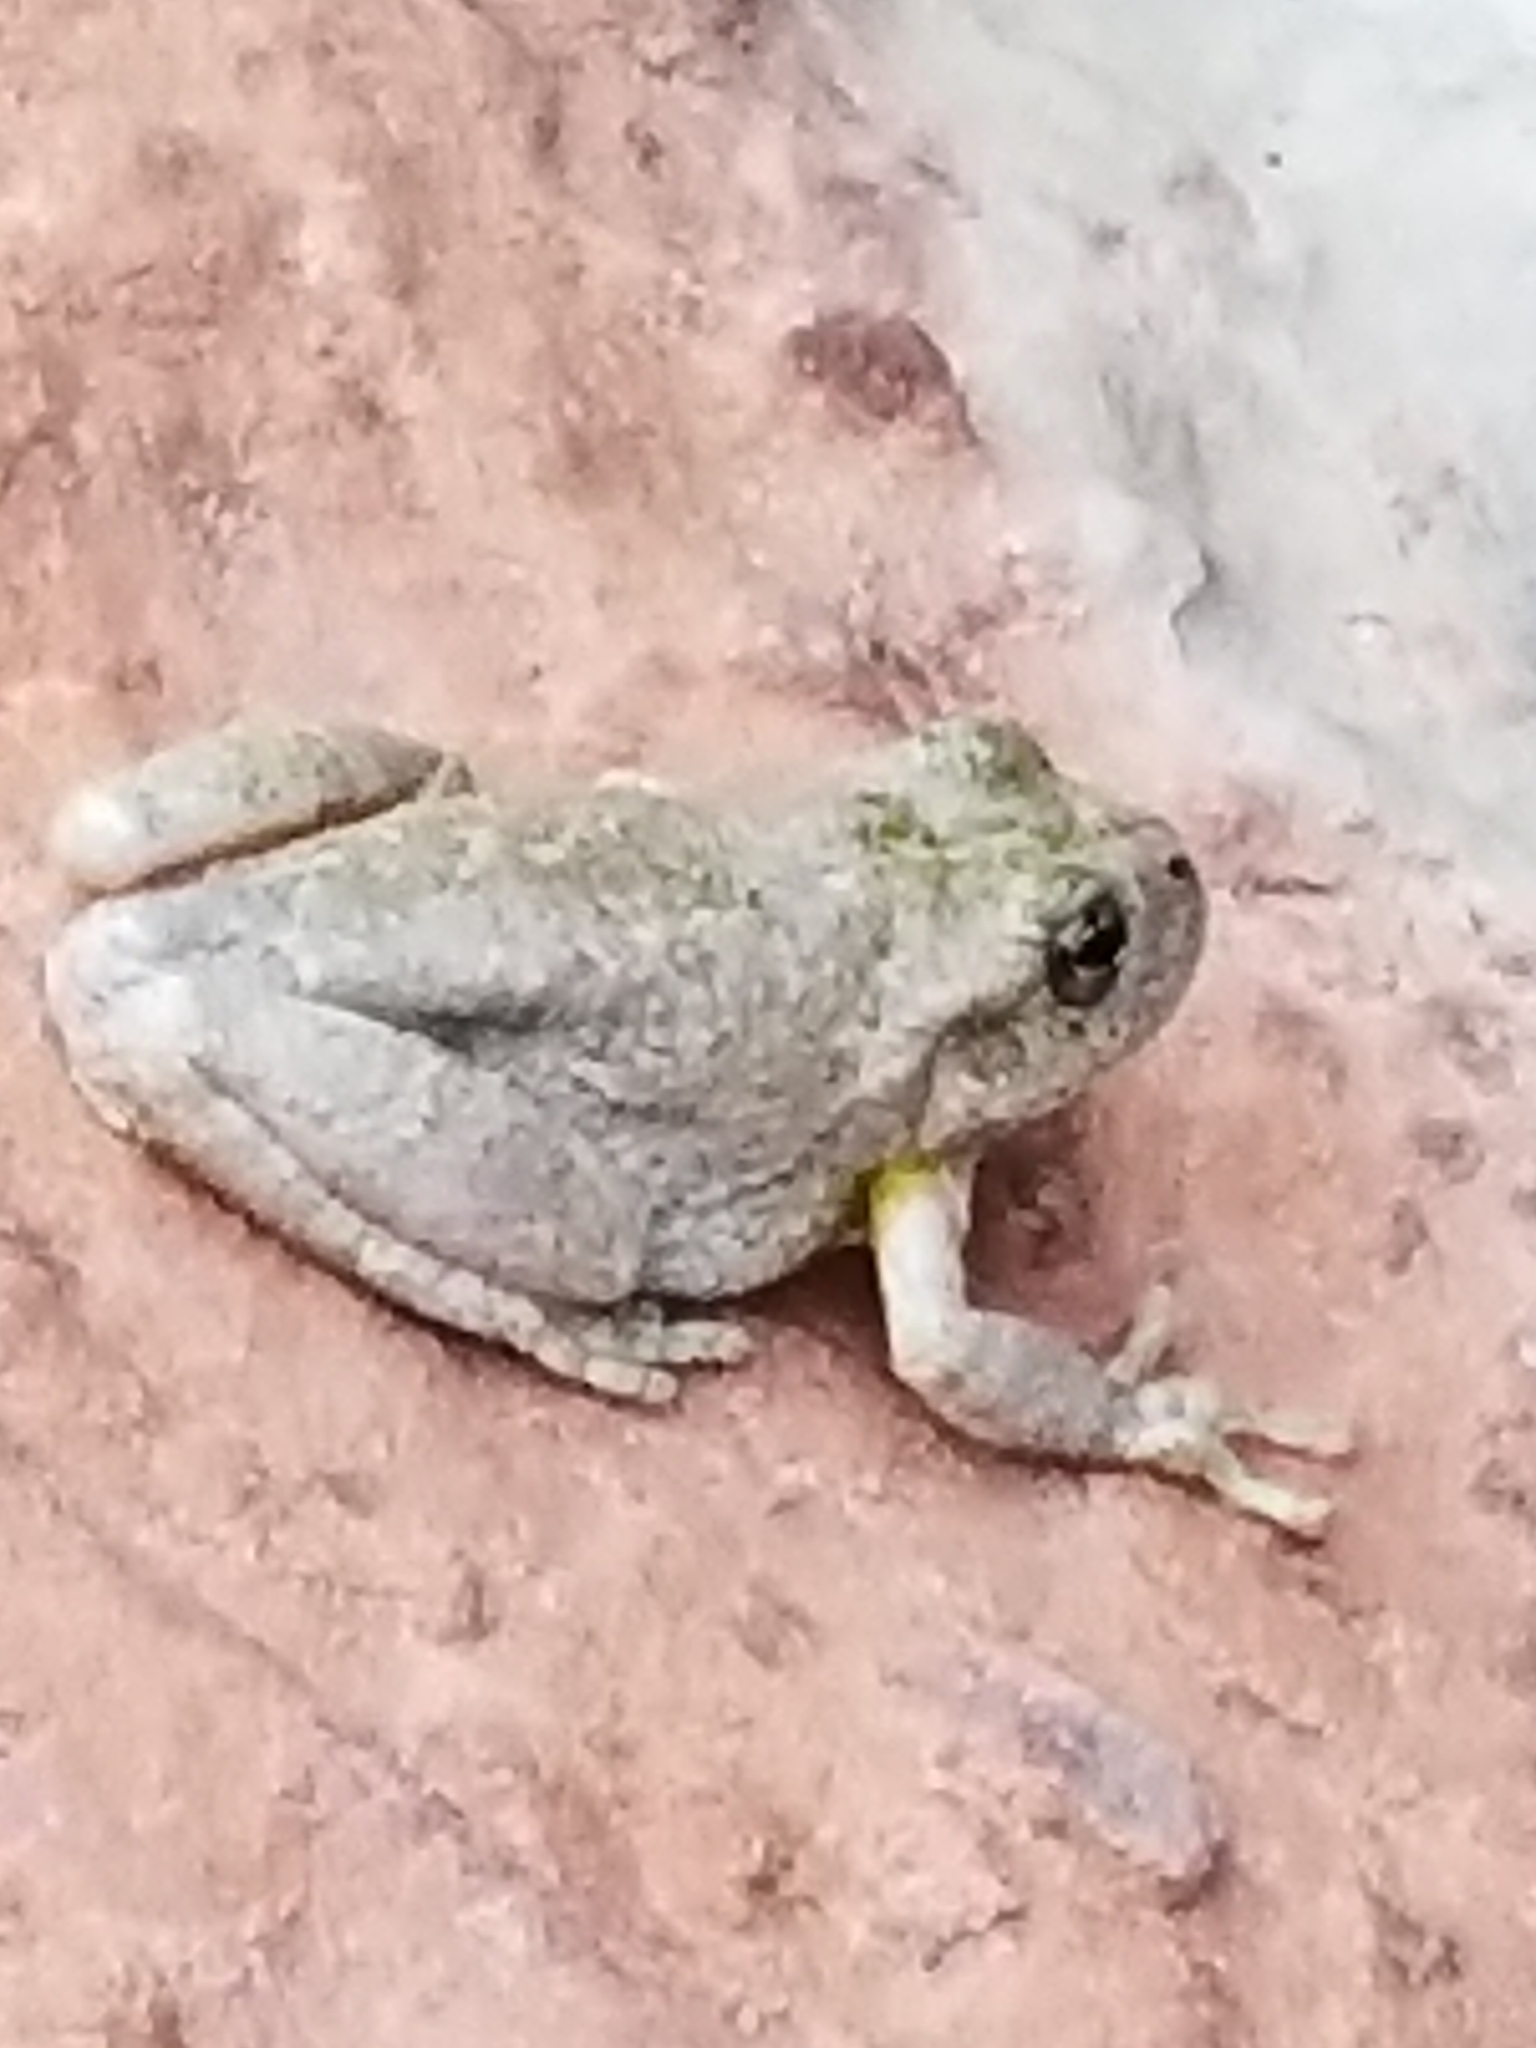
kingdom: Animalia
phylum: Chordata
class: Amphibia
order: Anura
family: Hylidae
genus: Dryophytes
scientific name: Dryophytes arenicolor
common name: Canyon treefrog
